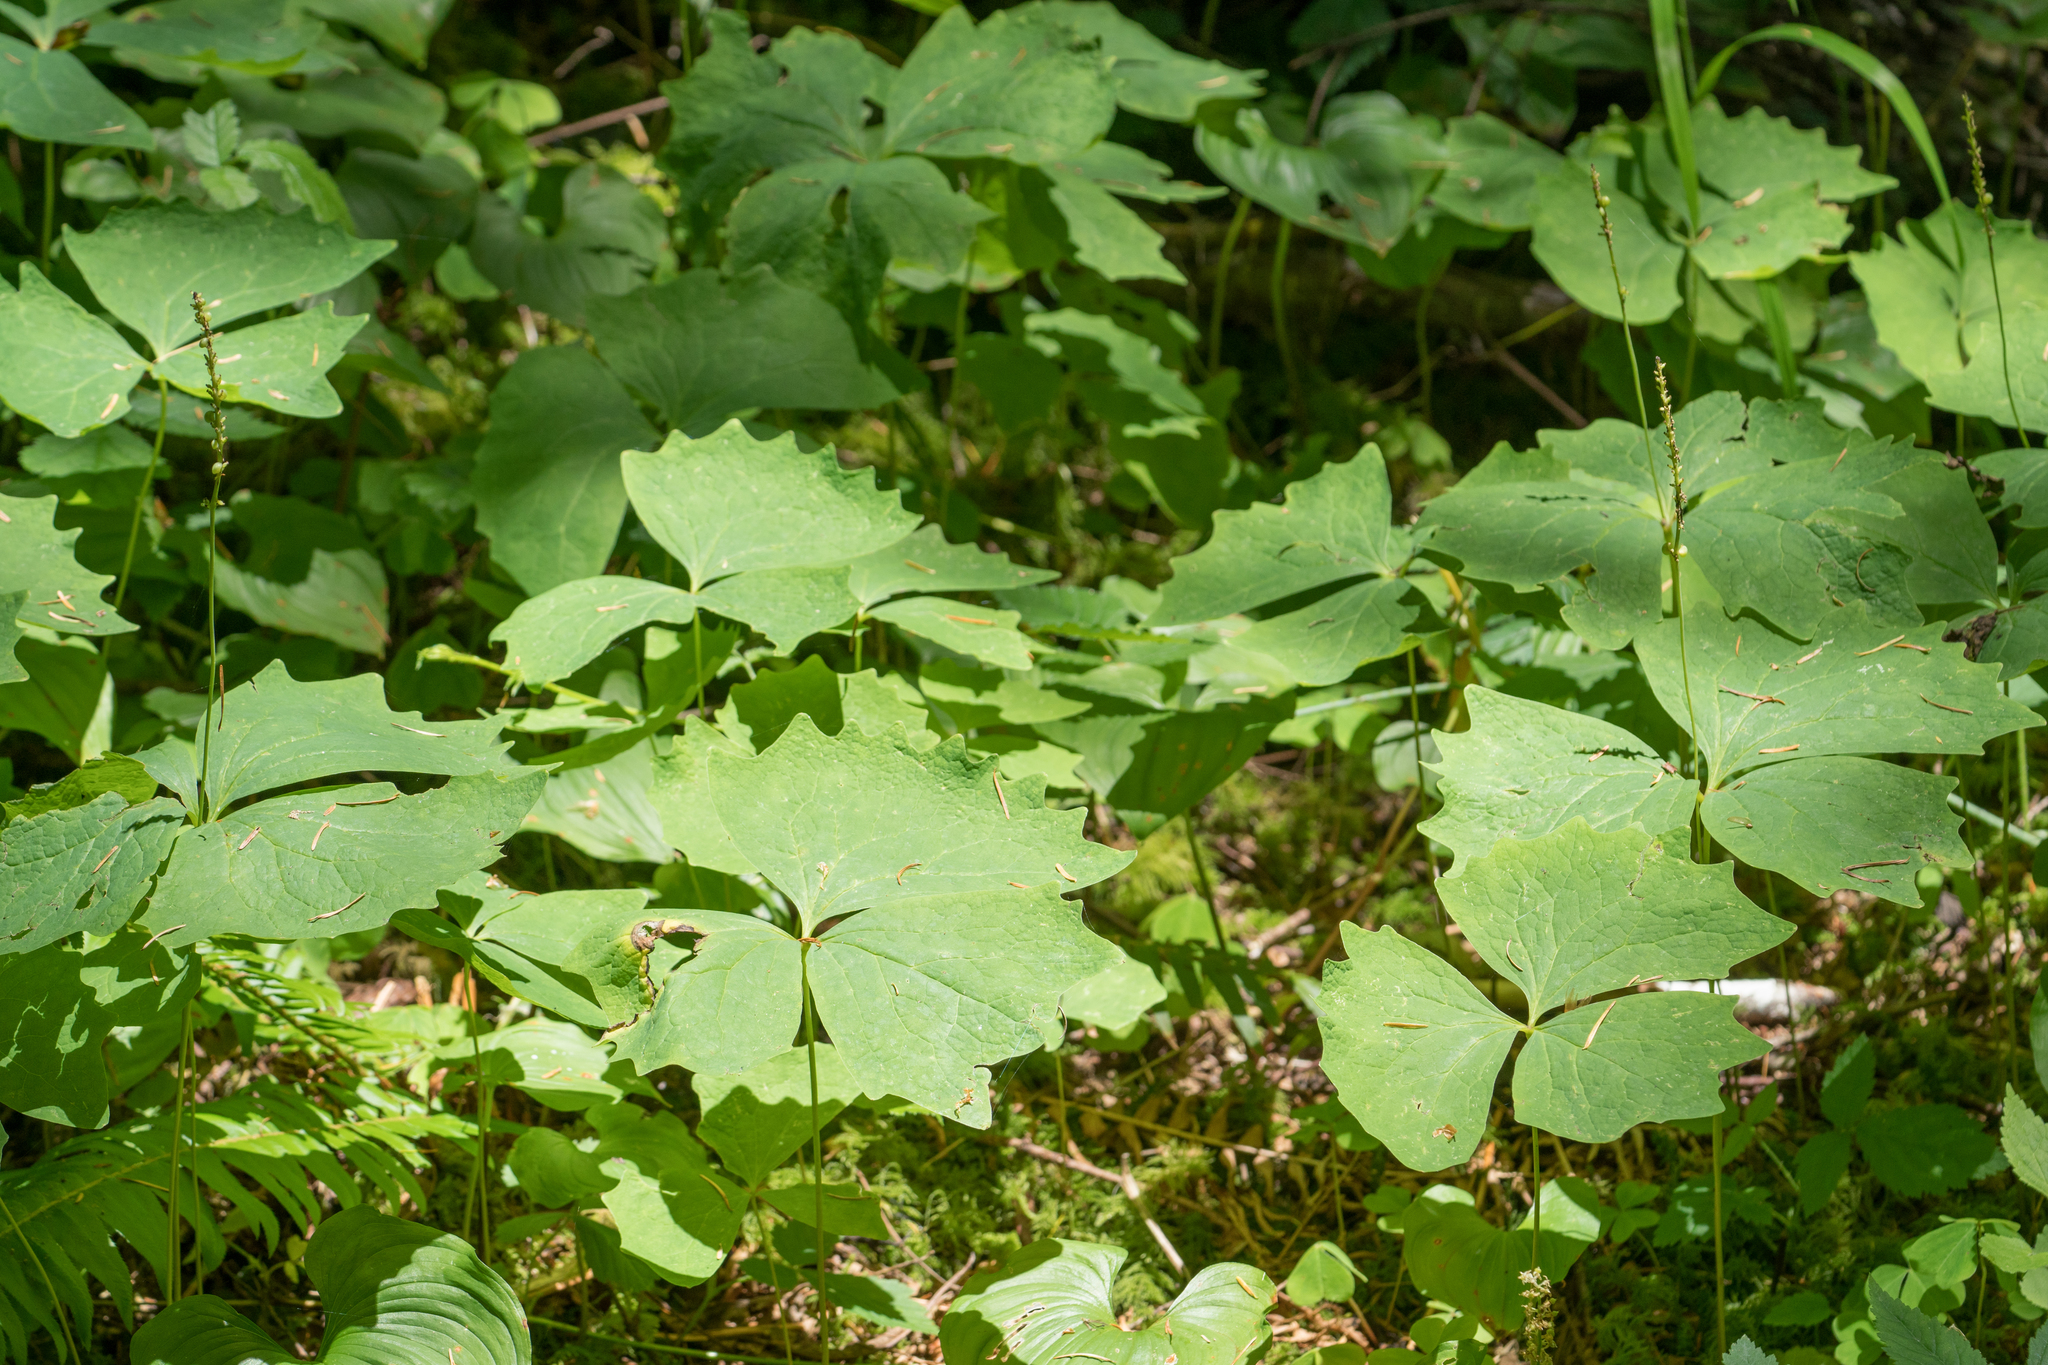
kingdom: Plantae
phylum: Tracheophyta
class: Magnoliopsida
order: Ranunculales
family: Berberidaceae
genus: Achlys
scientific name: Achlys triphylla
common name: Vanilla-leaf
